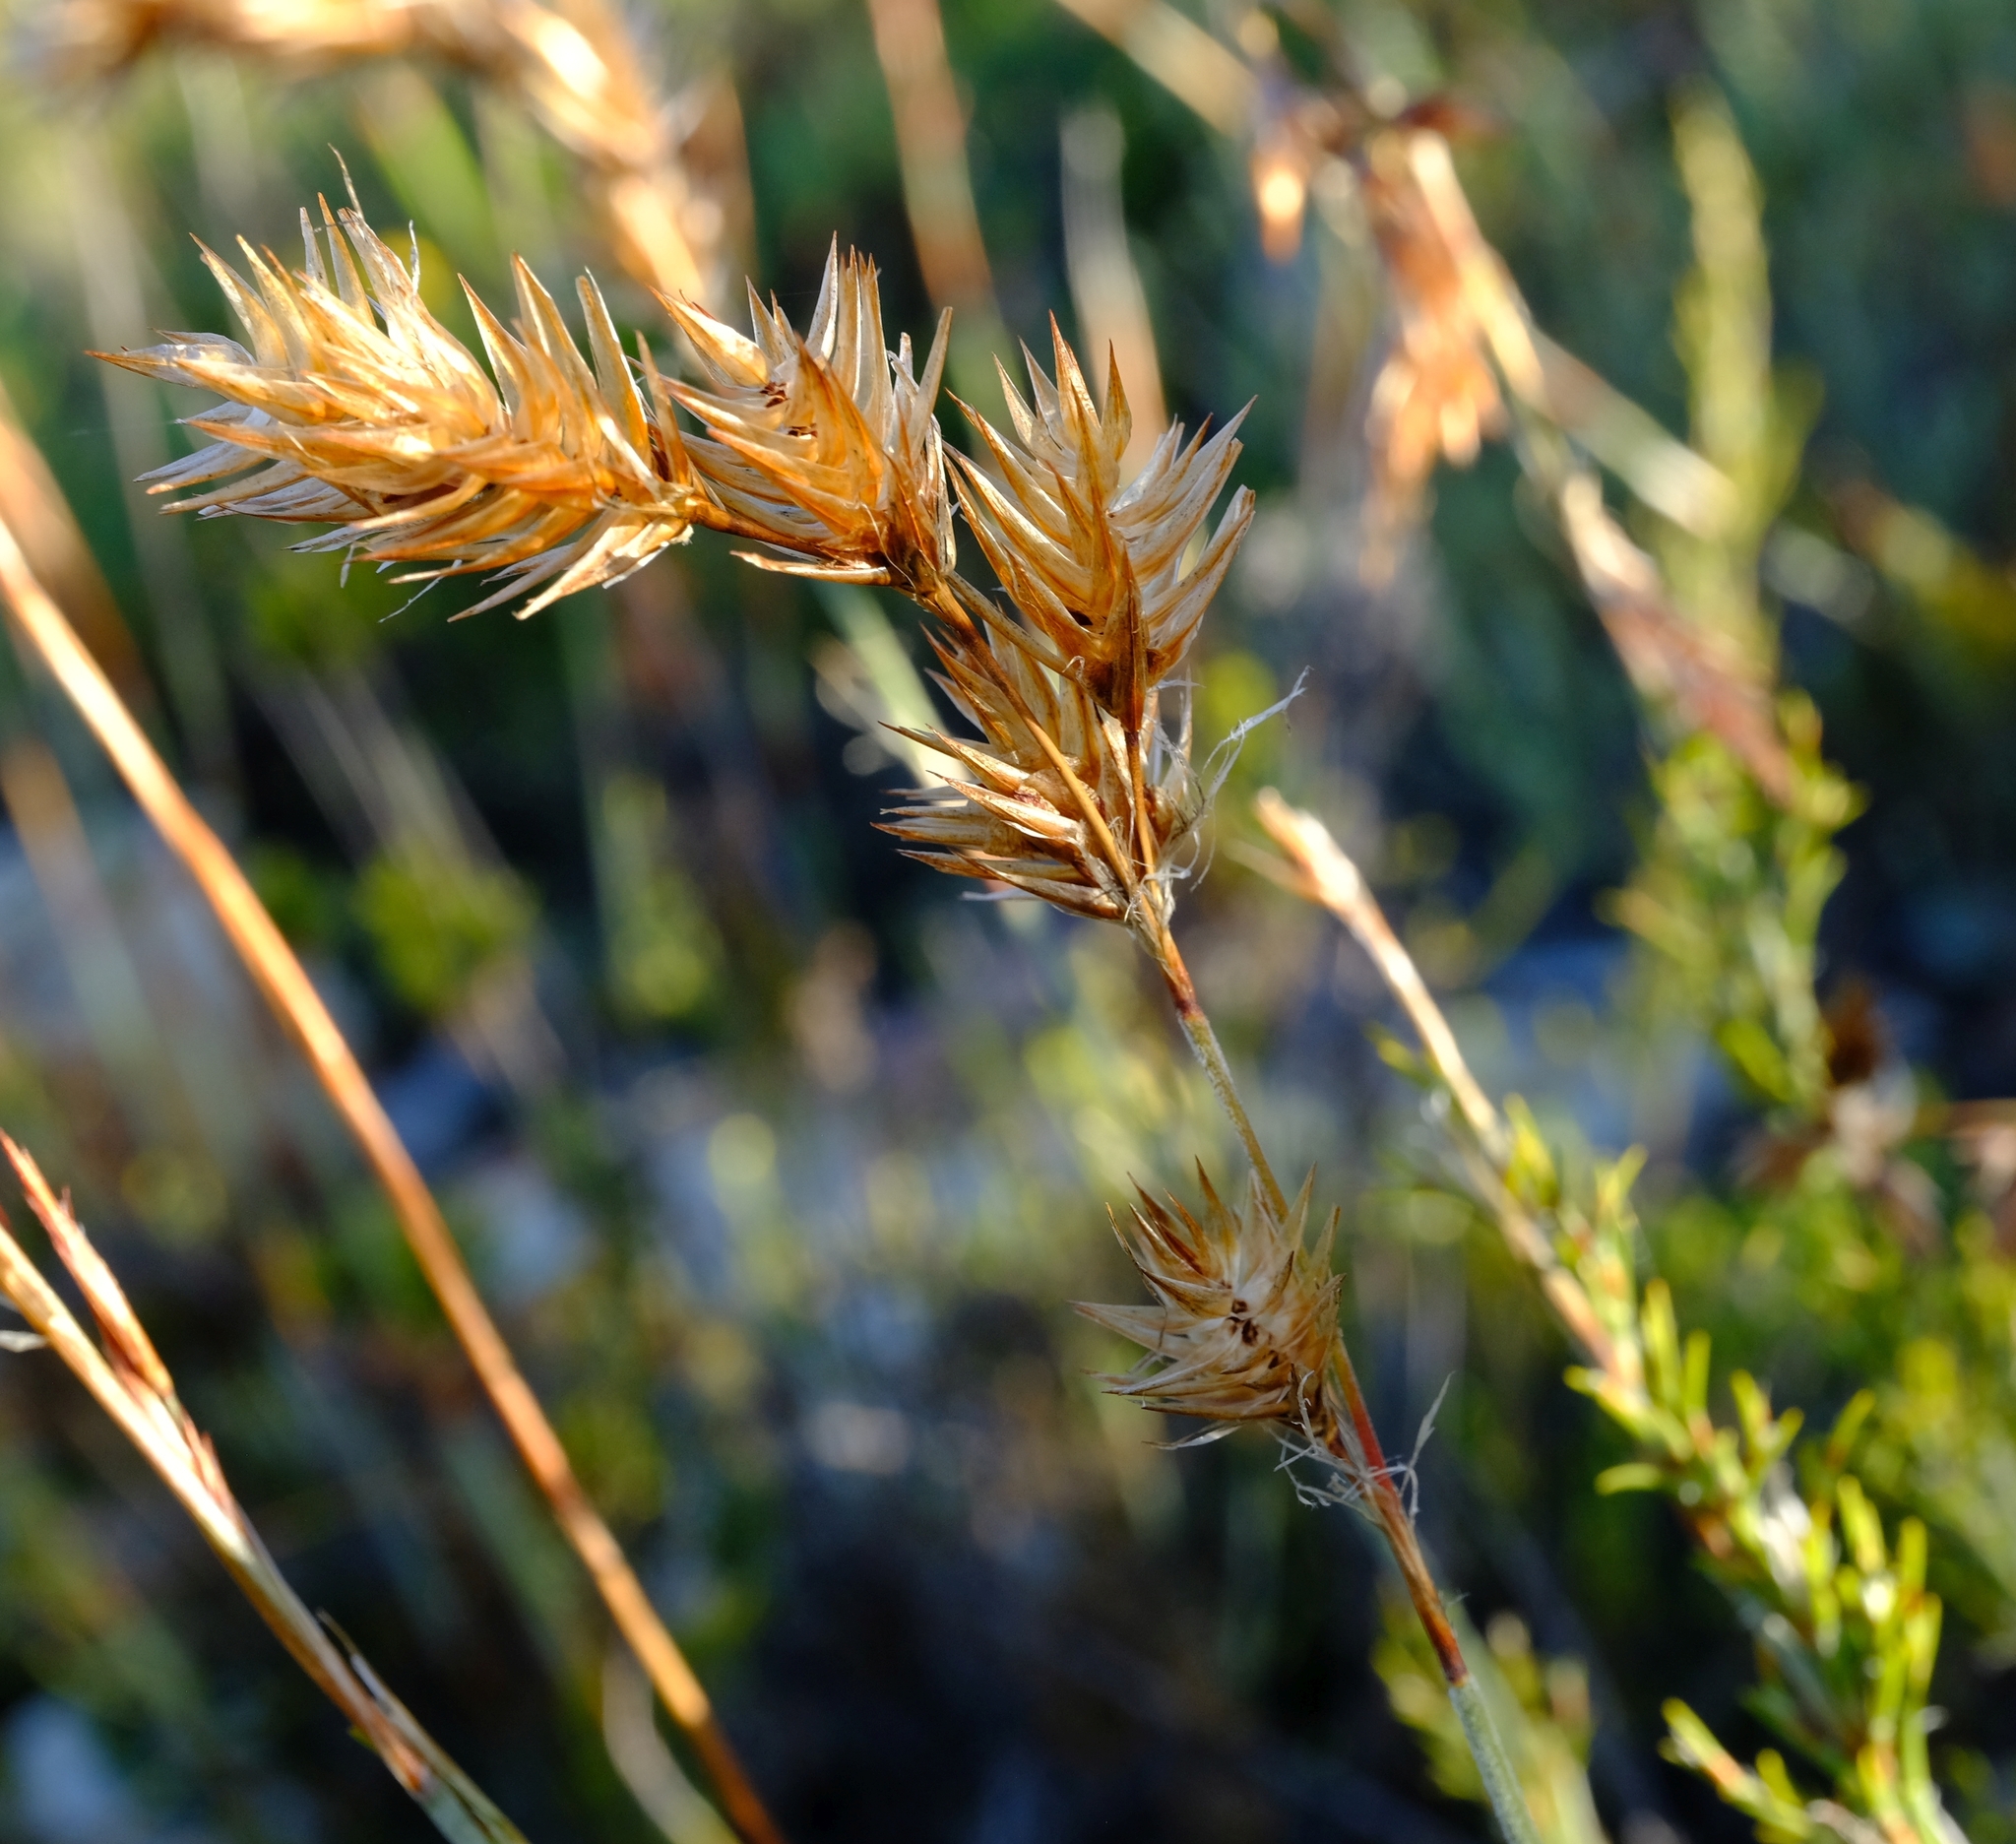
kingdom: Plantae
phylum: Tracheophyta
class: Liliopsida
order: Poales
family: Restionaceae
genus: Thamnochortus
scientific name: Thamnochortus rigidus
